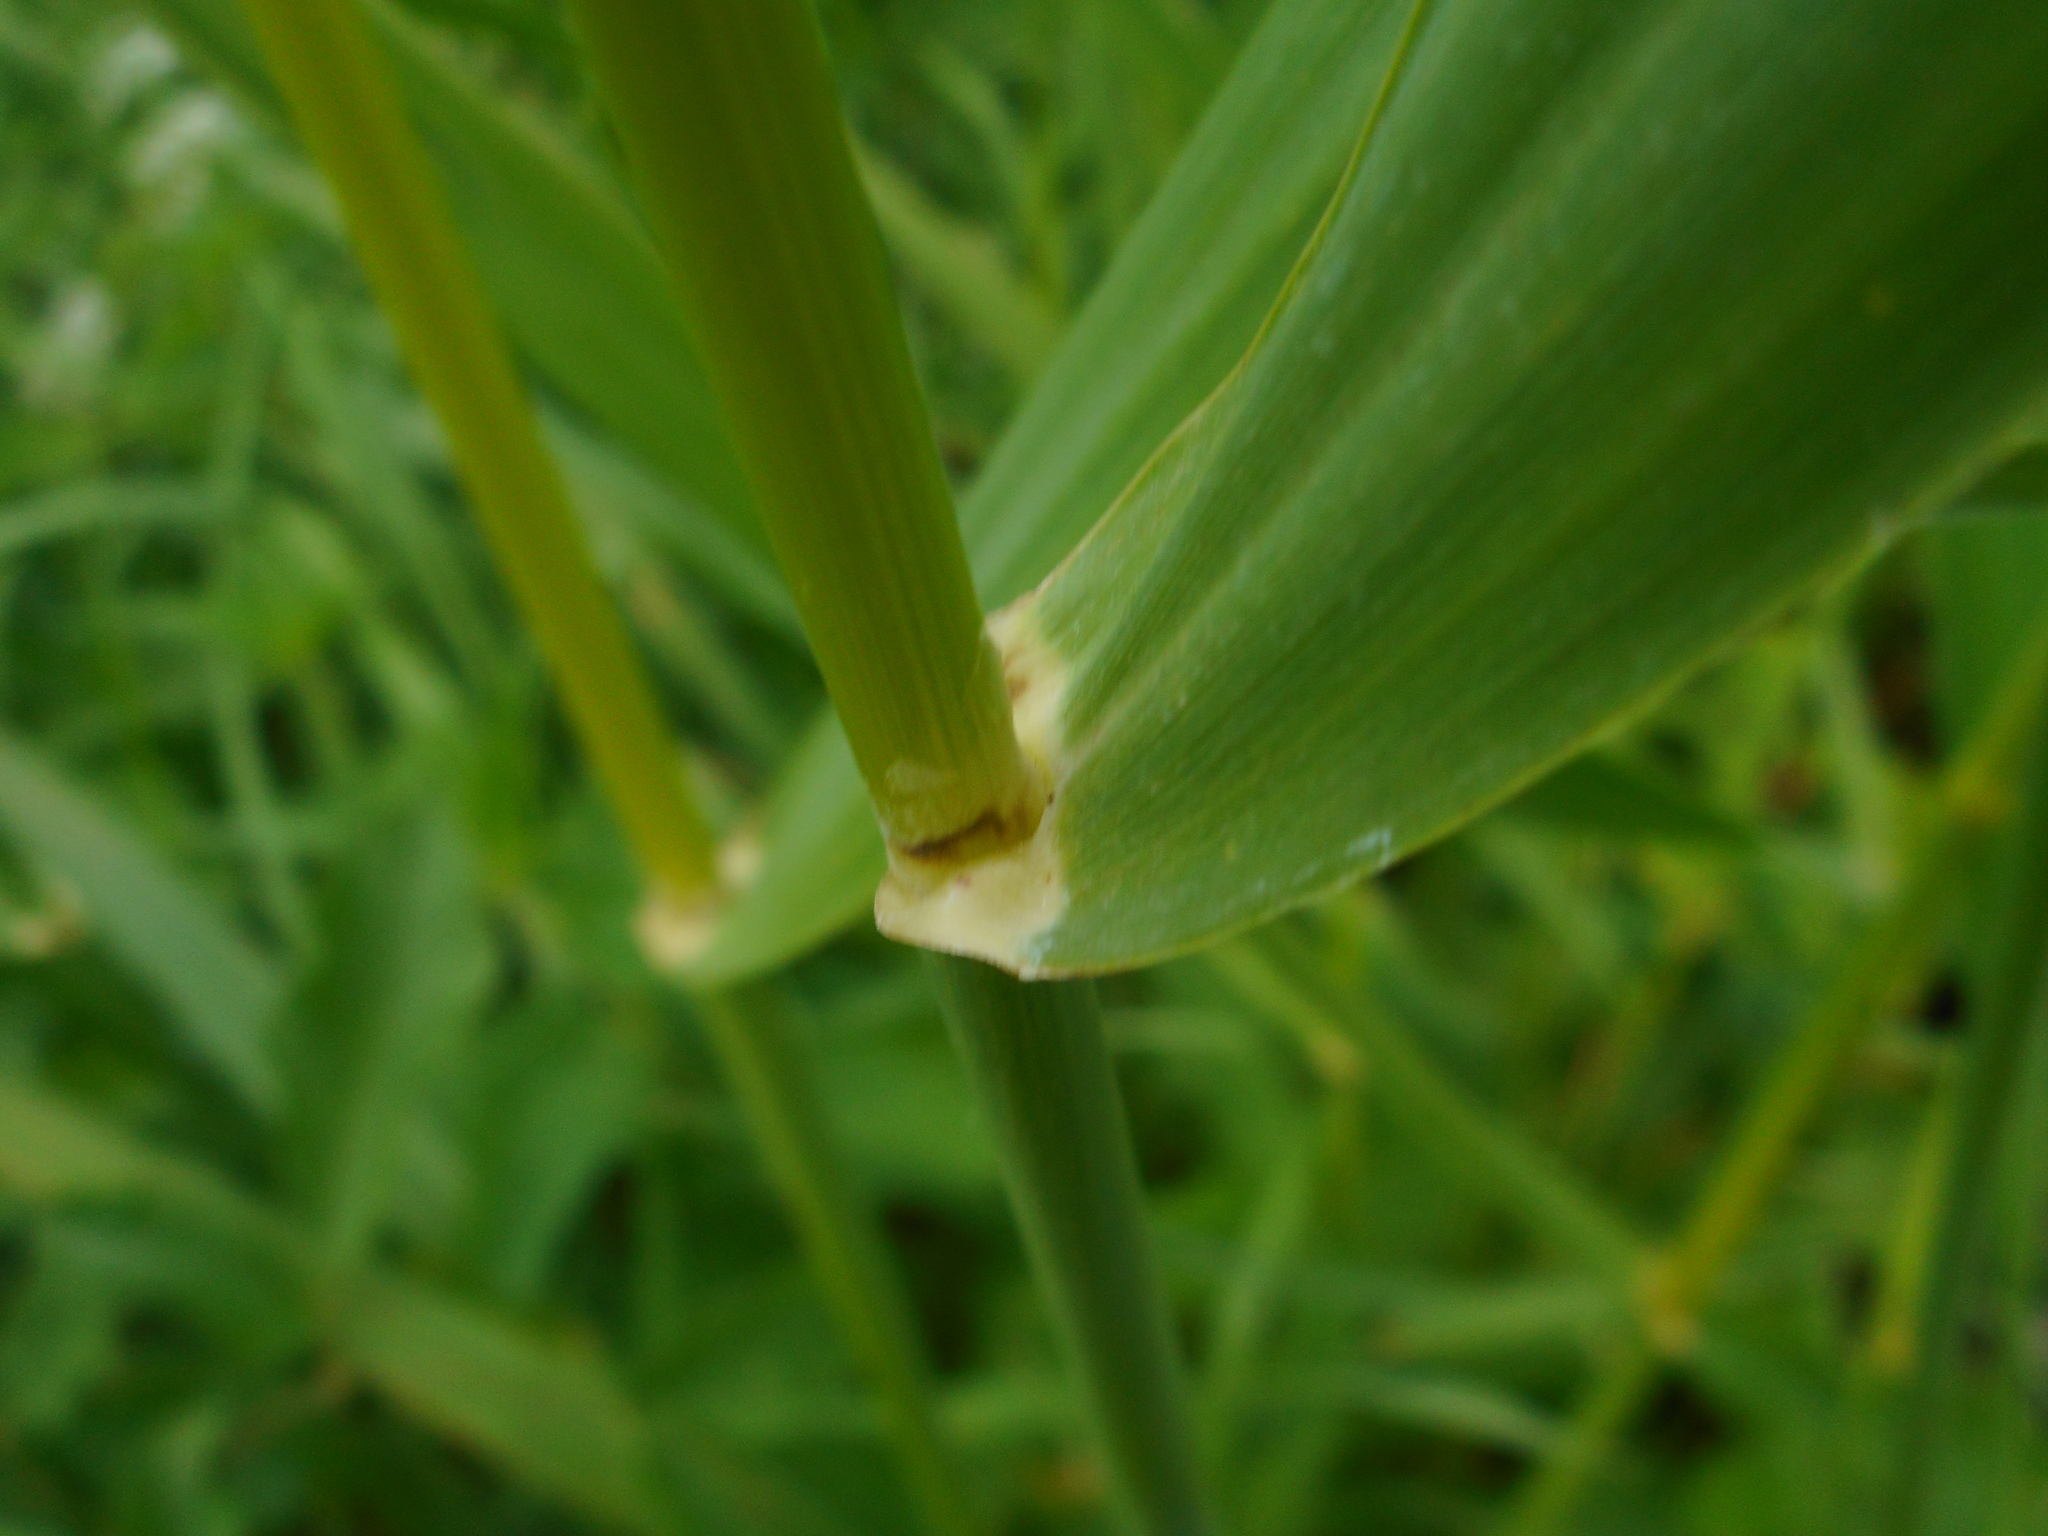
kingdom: Plantae
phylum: Tracheophyta
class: Liliopsida
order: Poales
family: Poaceae
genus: Phalaris
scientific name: Phalaris arundinacea
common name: Reed canary-grass
